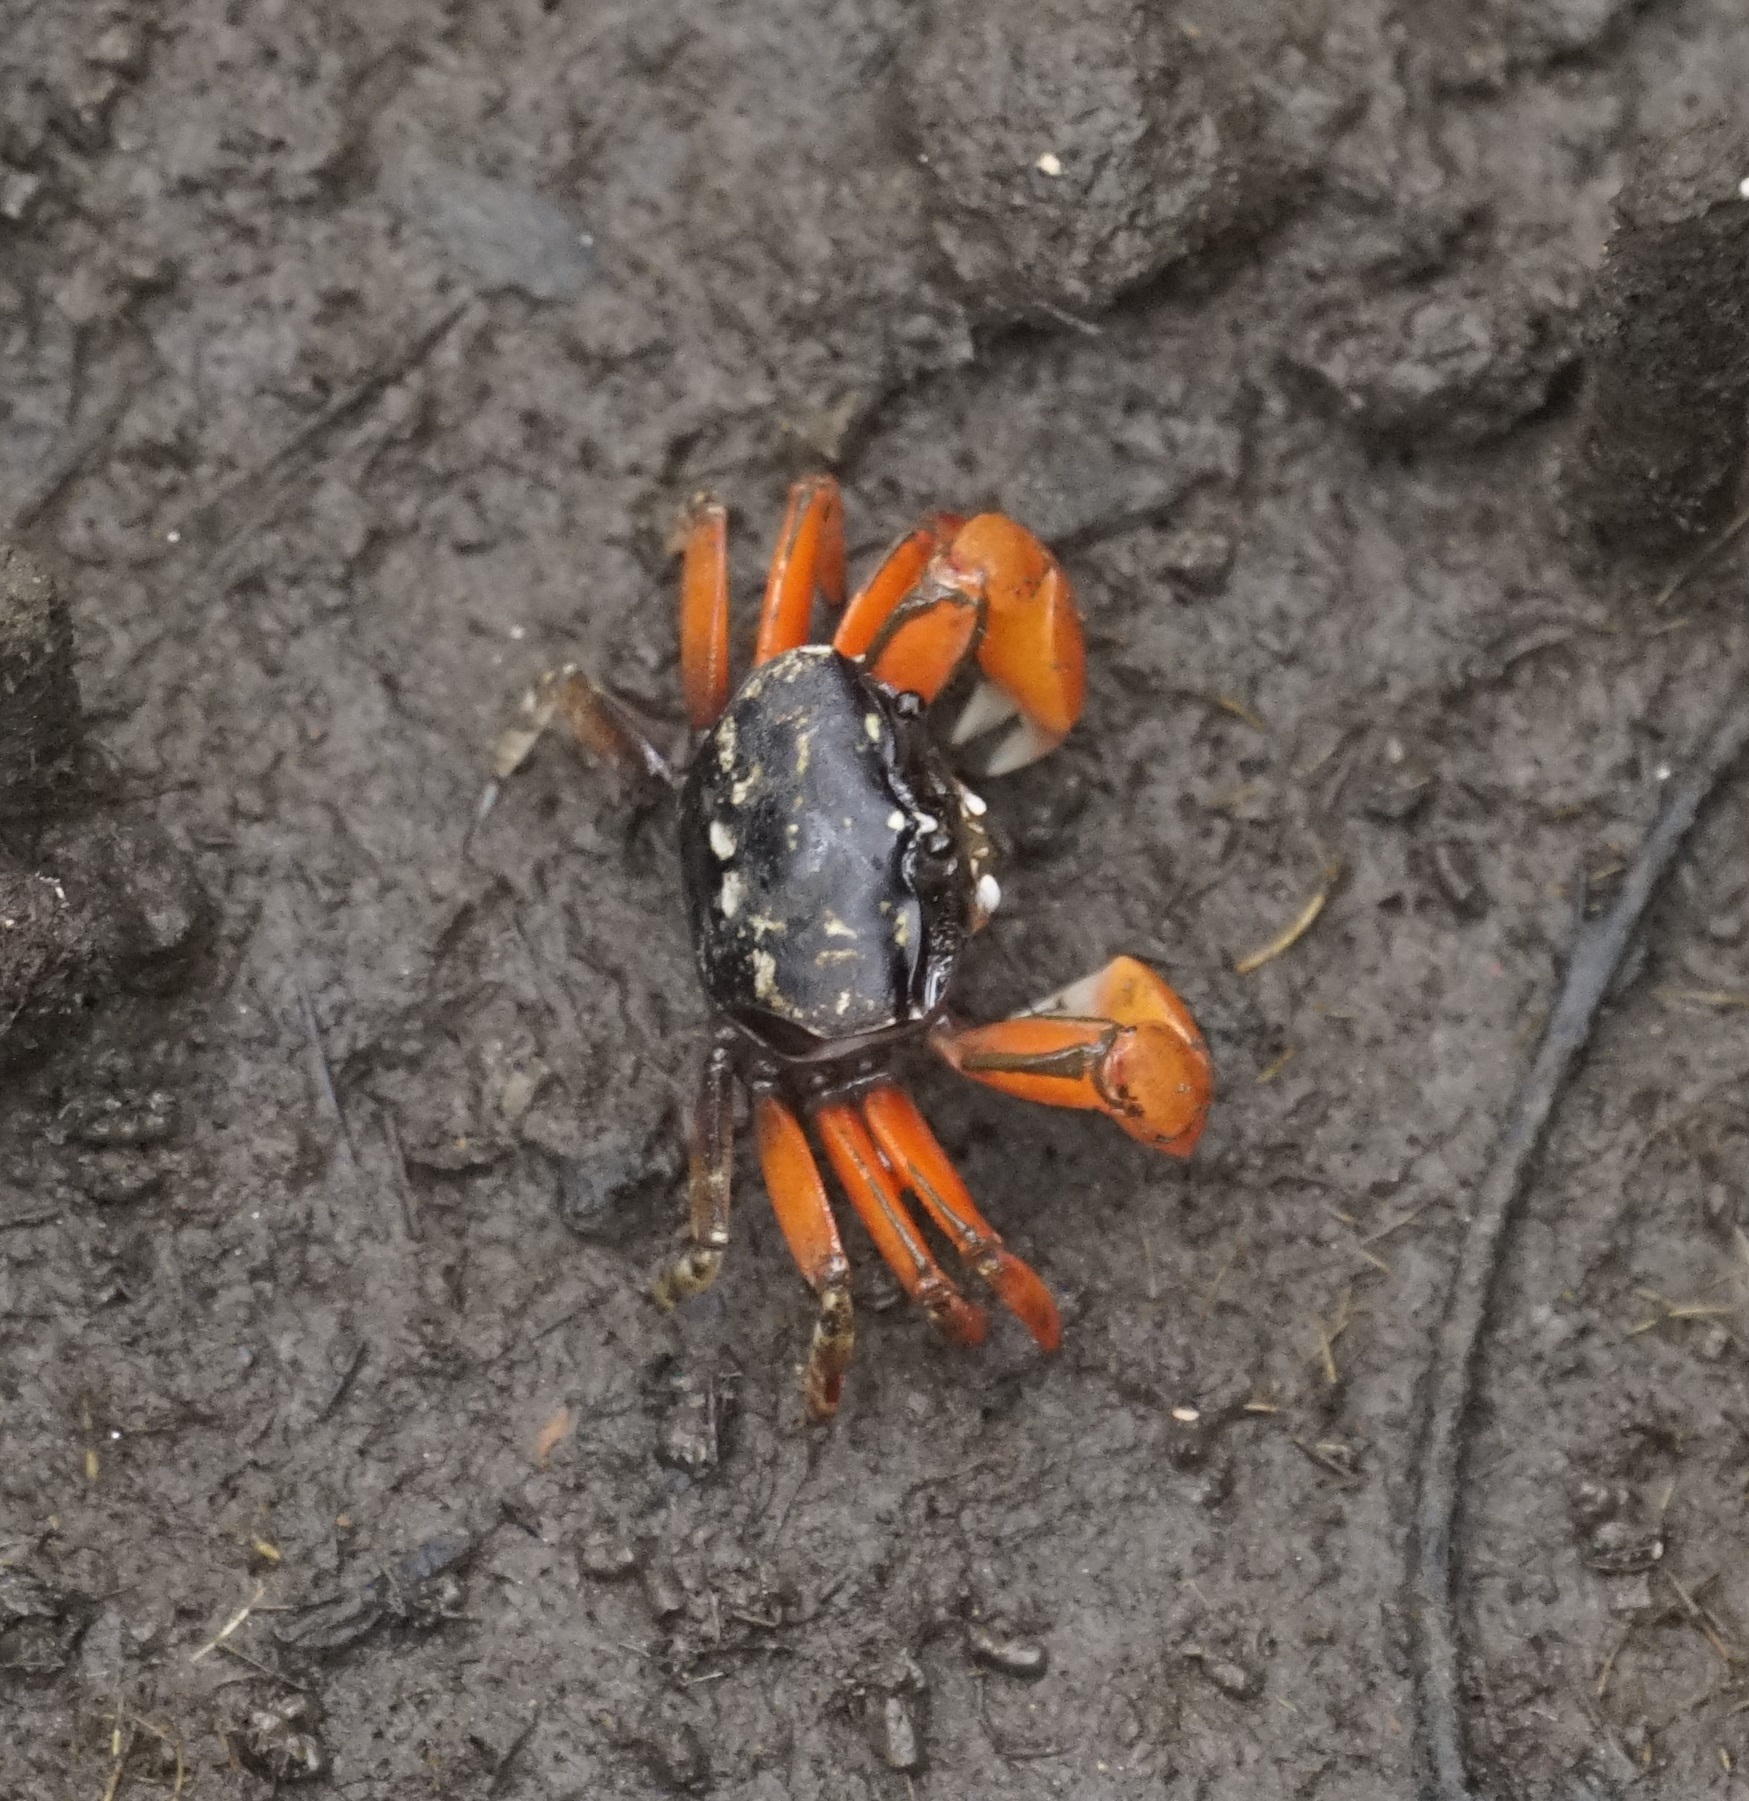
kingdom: Animalia
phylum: Arthropoda
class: Malacostraca
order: Decapoda
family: Heloeciidae
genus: Heloecius
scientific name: Heloecius cordiformis
